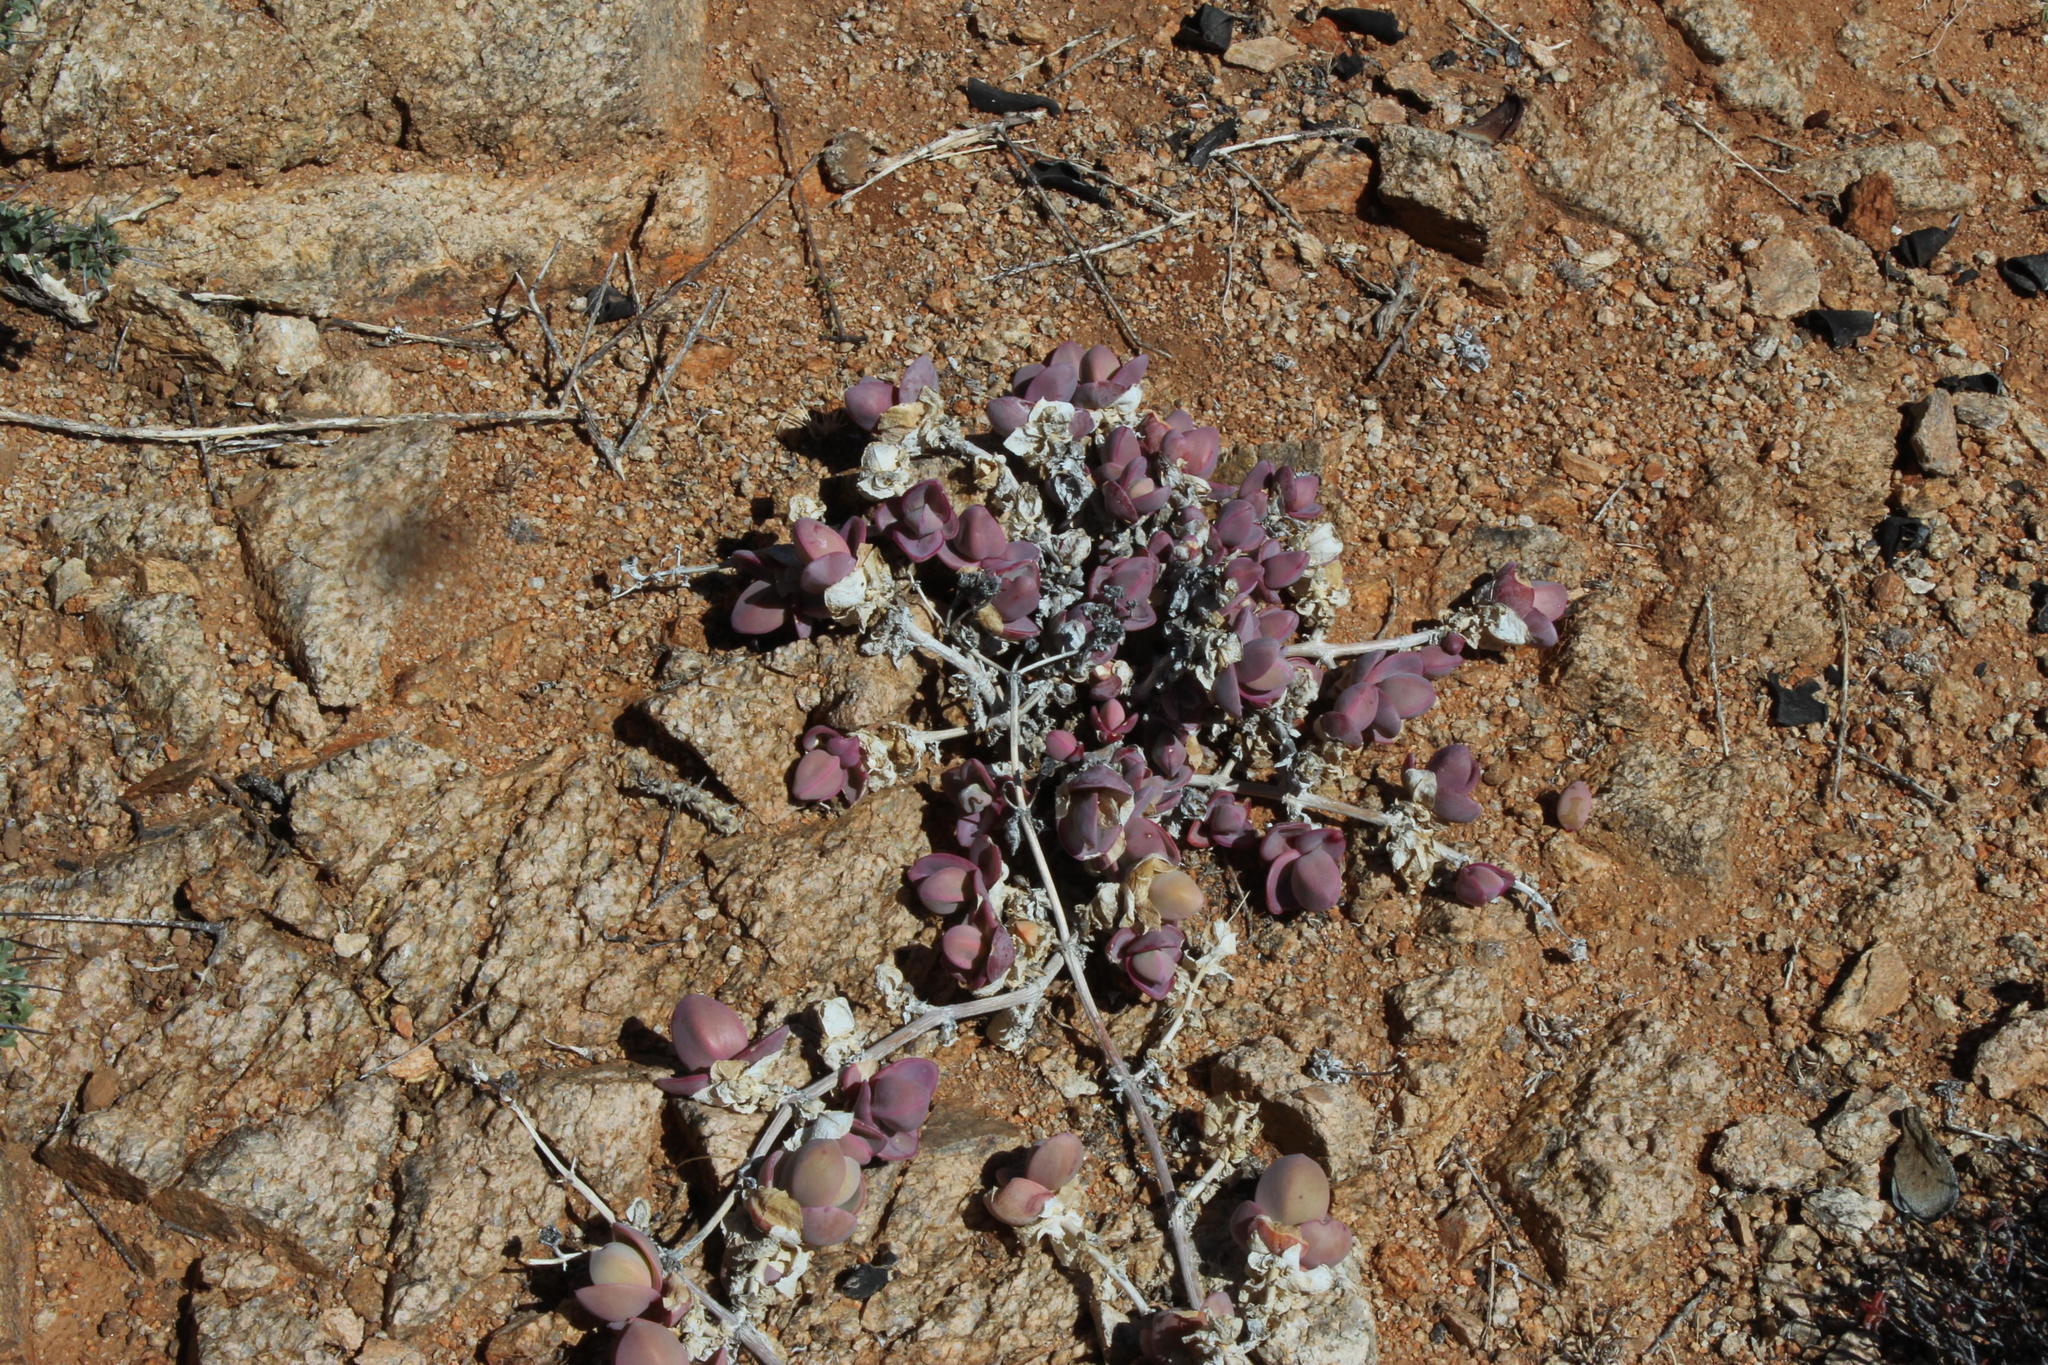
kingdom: Plantae
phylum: Tracheophyta
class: Magnoliopsida
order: Caryophyllales
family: Aizoaceae
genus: Mesembryanthemum
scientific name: Mesembryanthemum sladenianum
